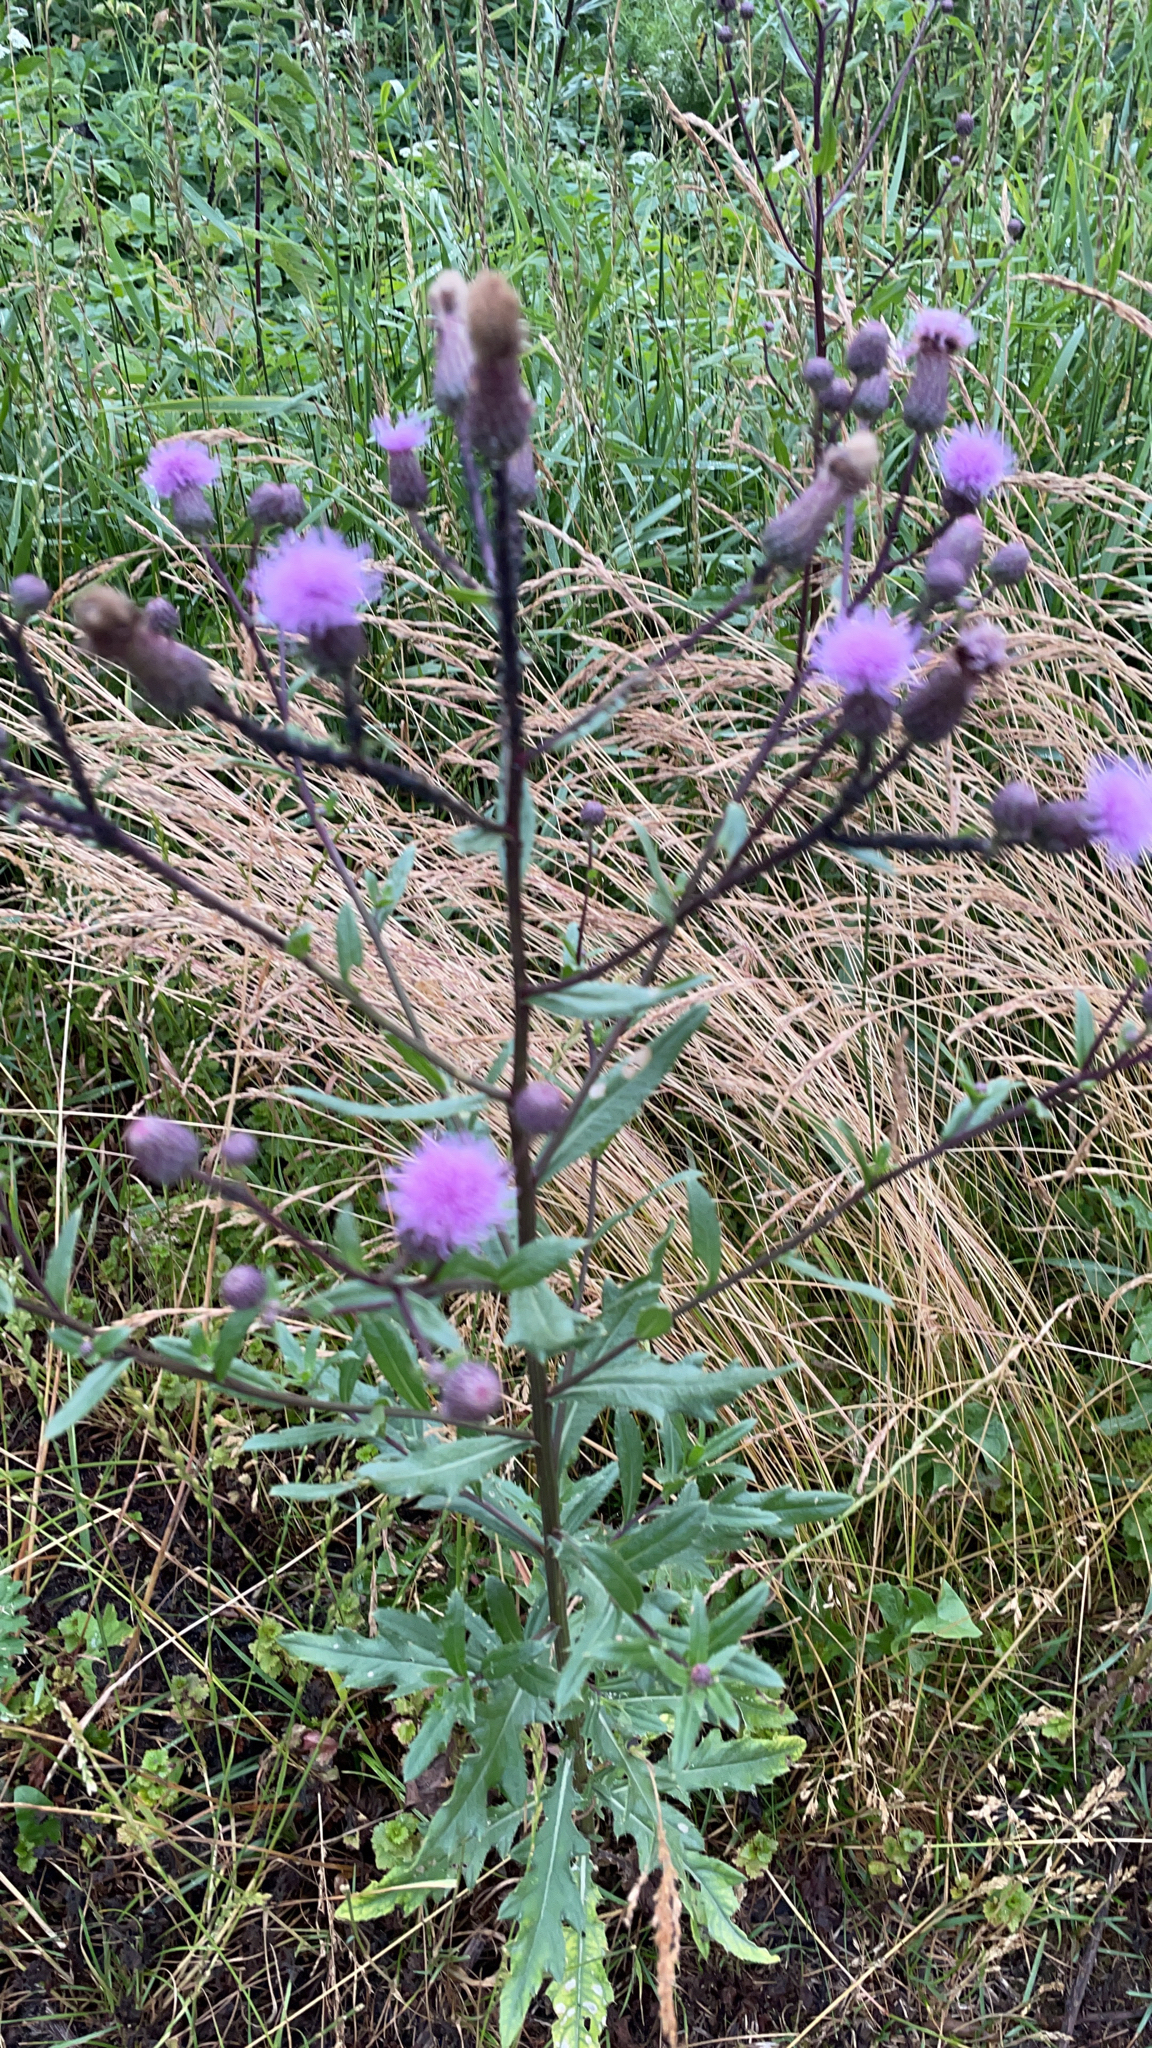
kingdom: Plantae
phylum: Tracheophyta
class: Magnoliopsida
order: Asterales
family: Asteraceae
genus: Cirsium
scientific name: Cirsium arvense
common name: Creeping thistle
